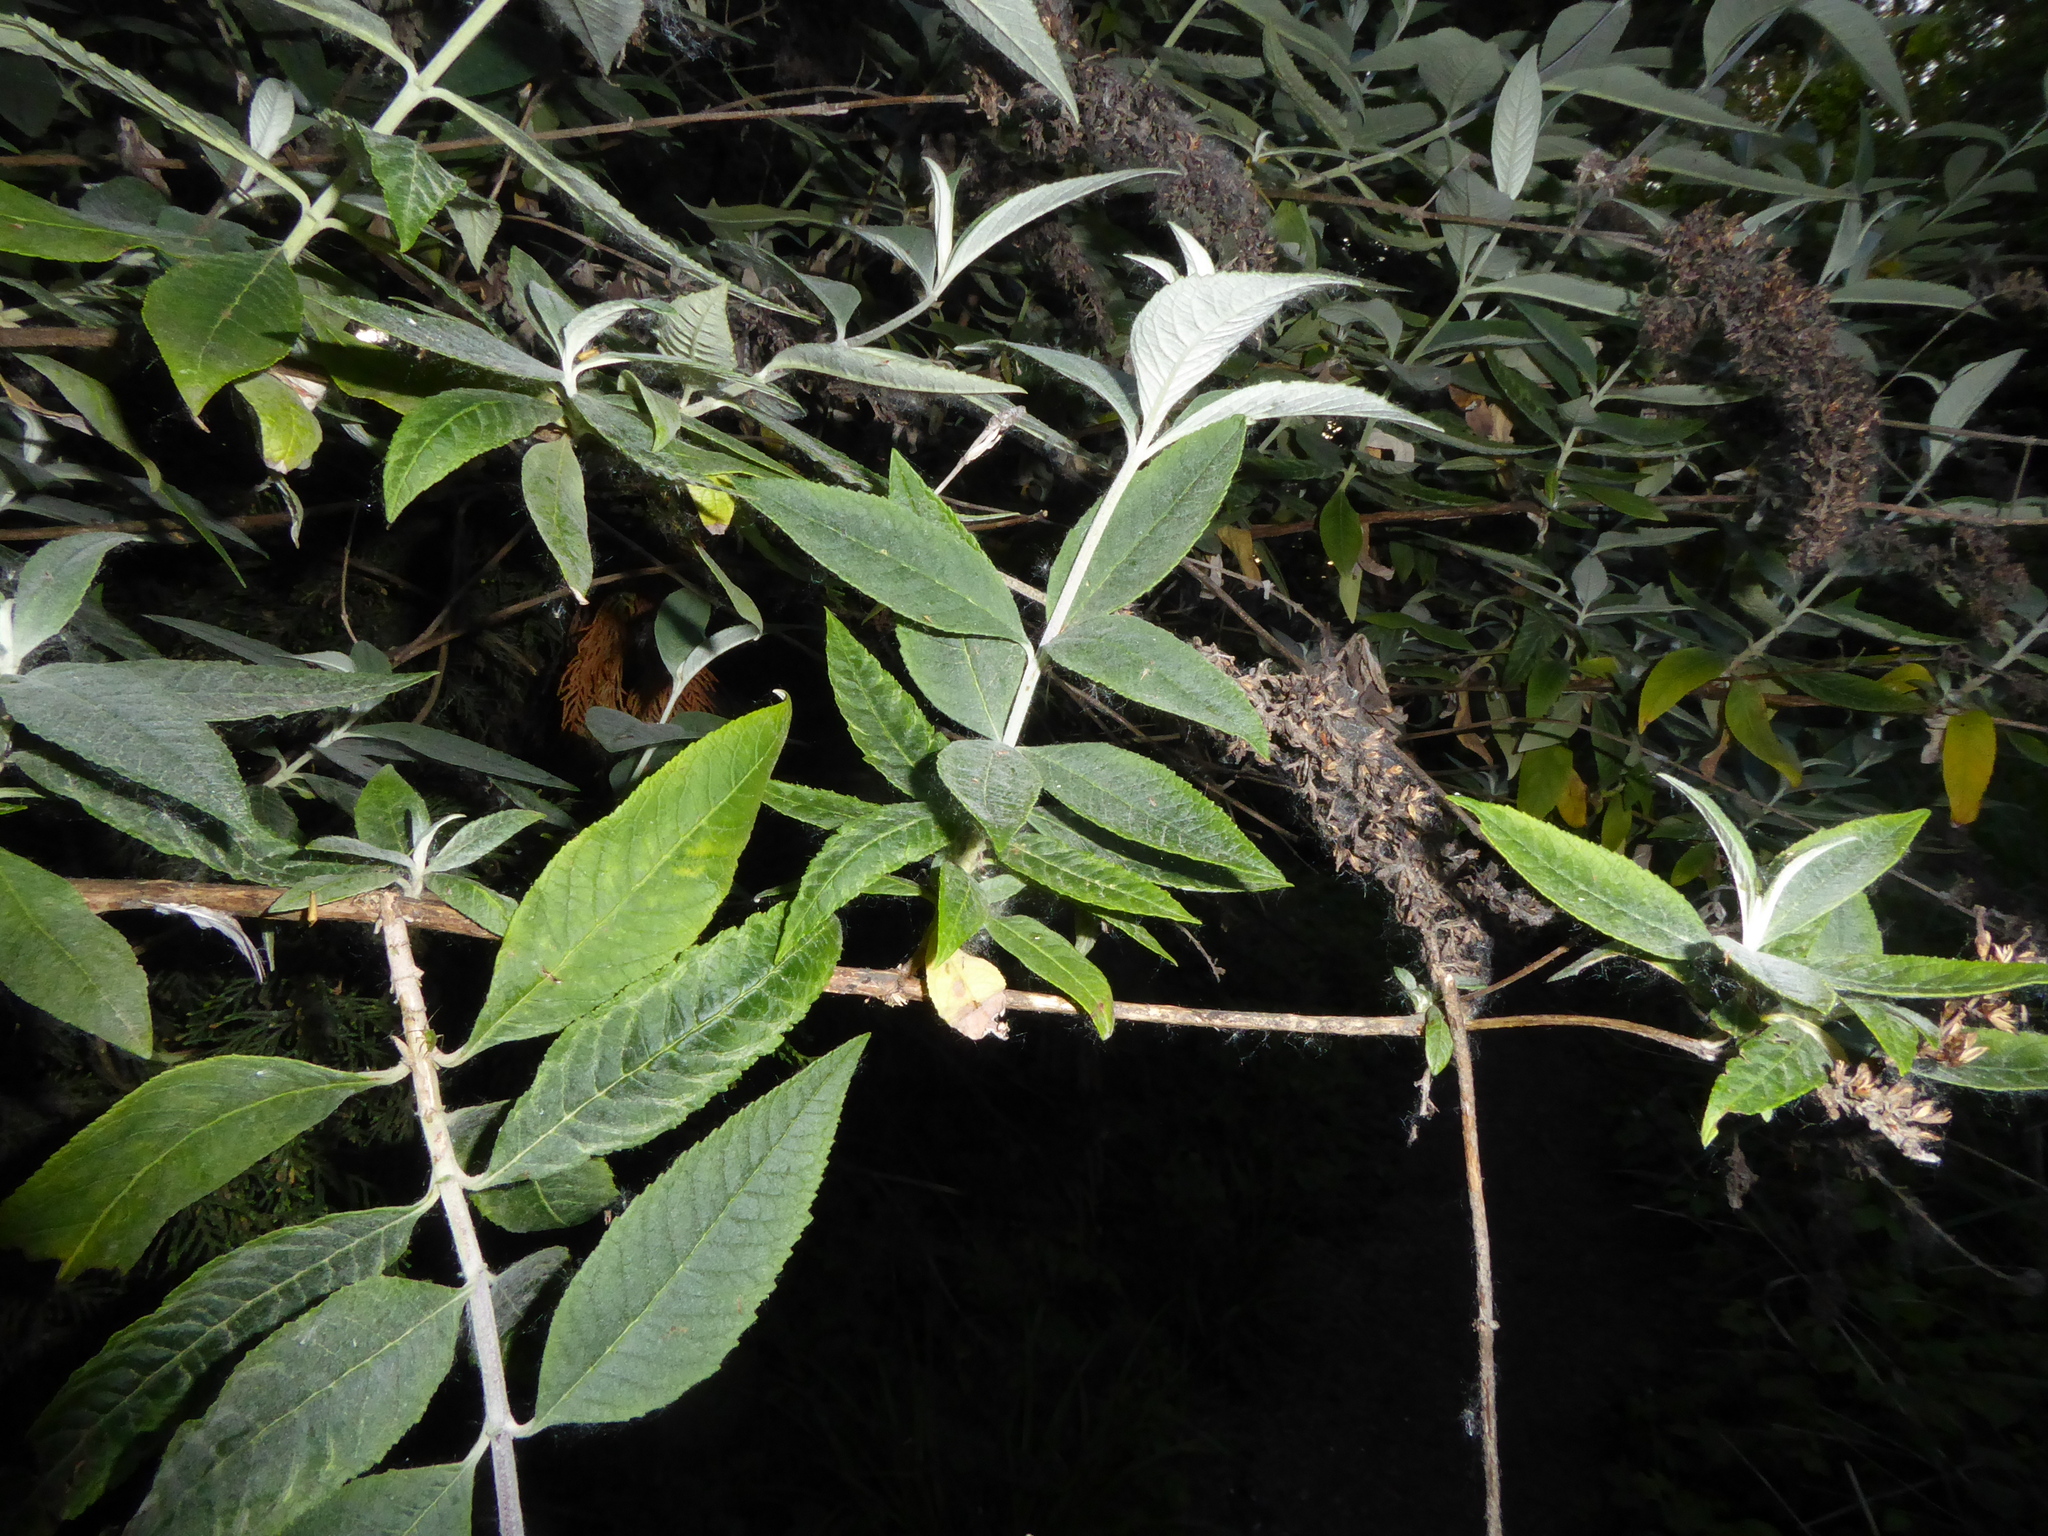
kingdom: Plantae
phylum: Tracheophyta
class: Magnoliopsida
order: Lamiales
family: Scrophulariaceae
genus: Buddleja
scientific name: Buddleja davidii
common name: Butterfly-bush
